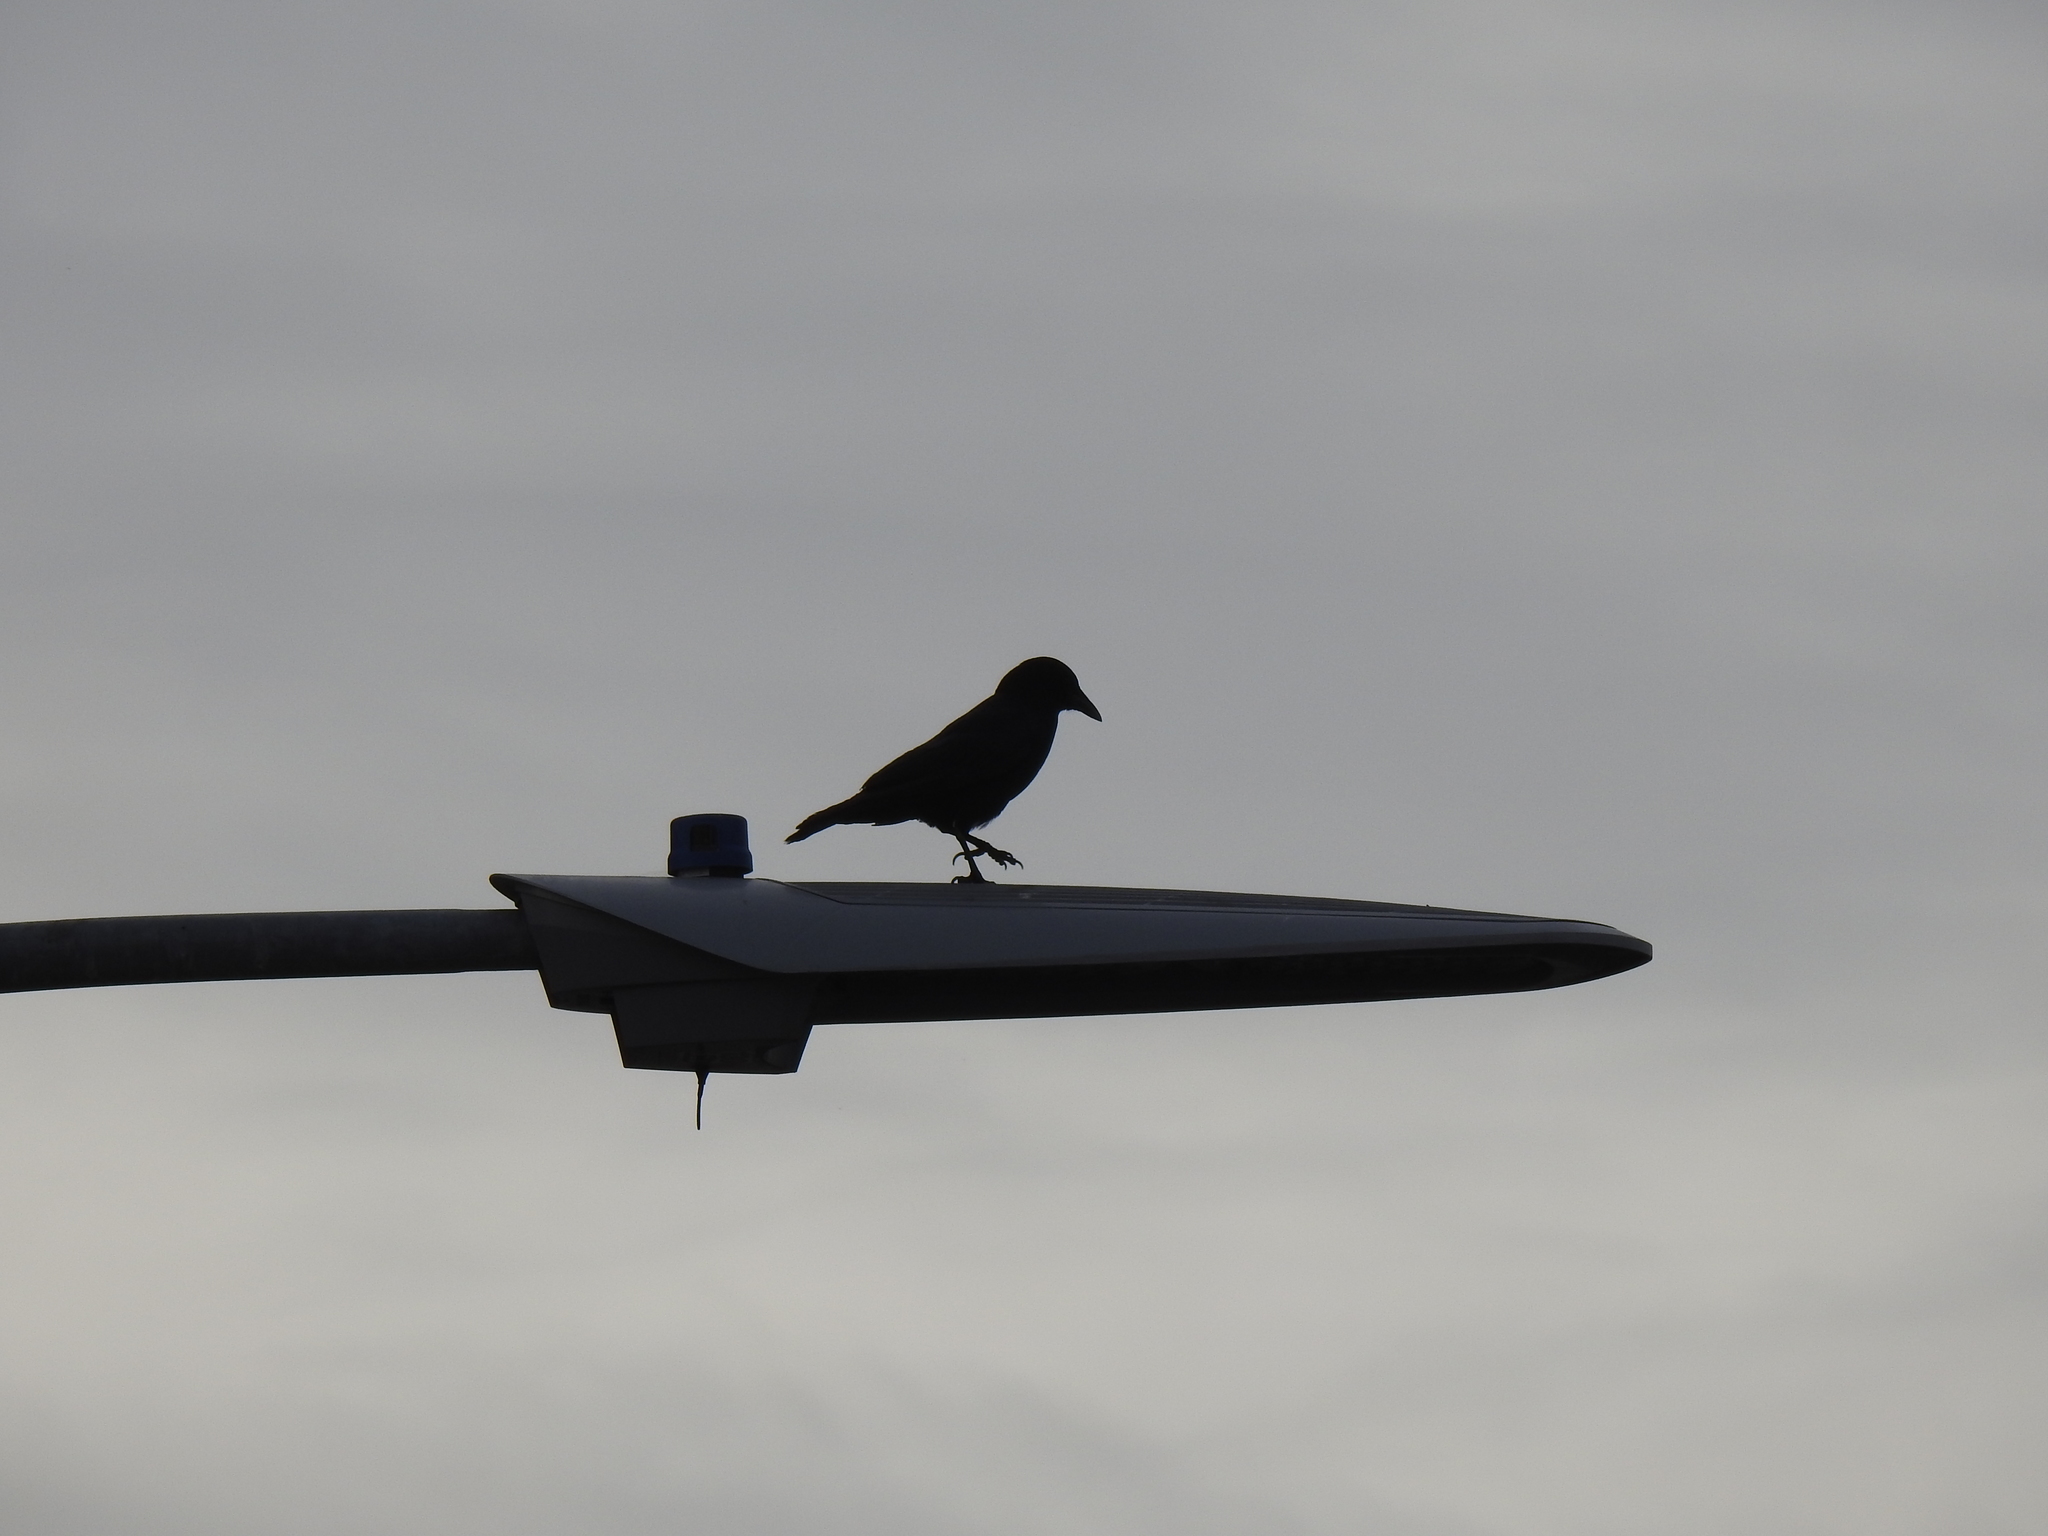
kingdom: Animalia
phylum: Chordata
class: Aves
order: Passeriformes
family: Corvidae
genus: Corvus
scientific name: Corvus brachyrhynchos
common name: American crow
